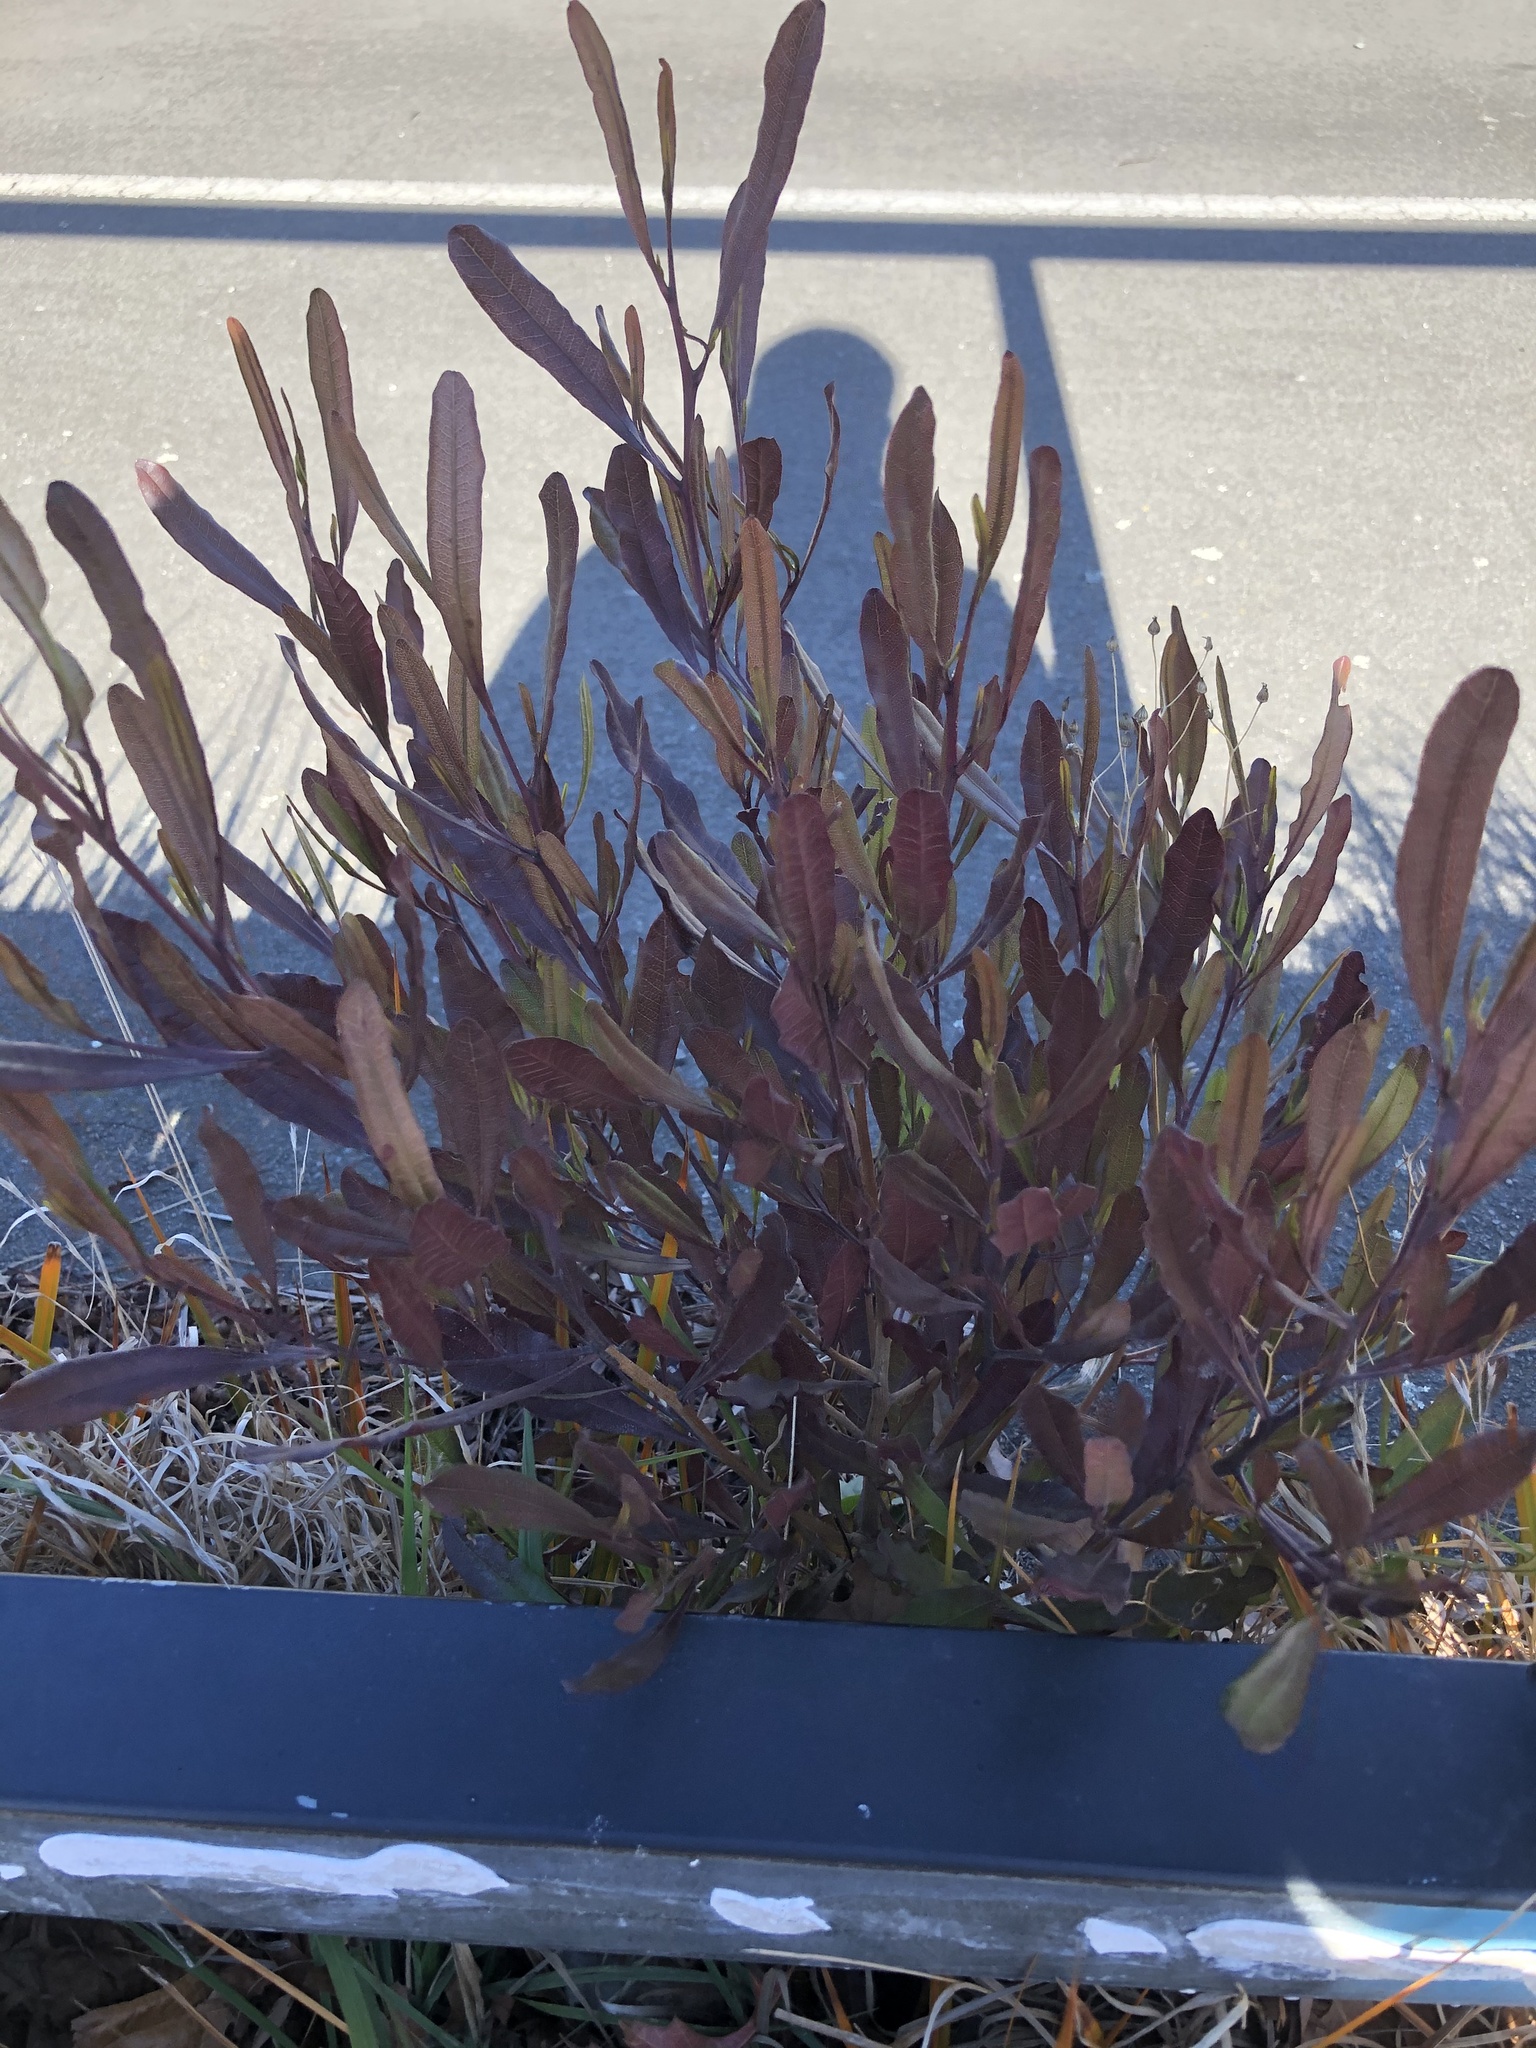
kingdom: Plantae
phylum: Tracheophyta
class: Magnoliopsida
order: Sapindales
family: Sapindaceae
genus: Dodonaea
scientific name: Dodonaea viscosa
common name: Hopbush
